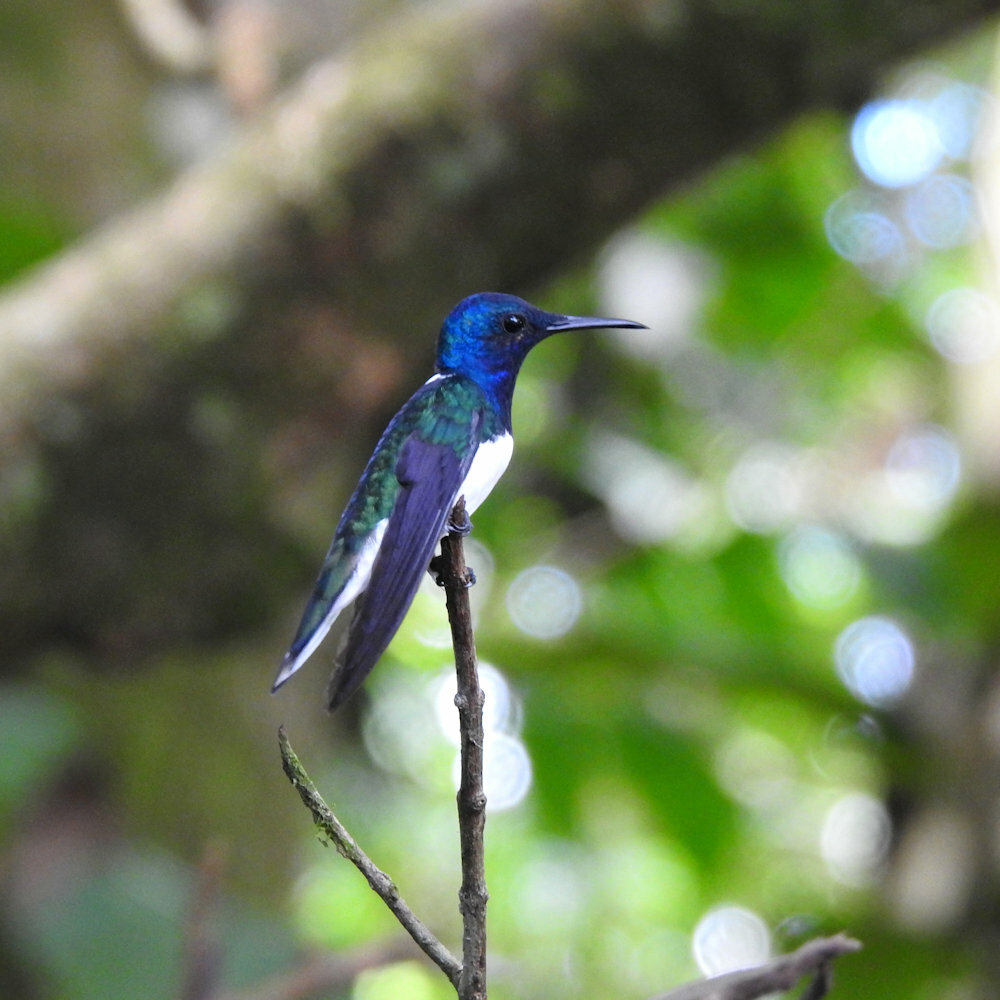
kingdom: Animalia
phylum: Chordata
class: Aves
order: Apodiformes
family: Trochilidae
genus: Florisuga
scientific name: Florisuga mellivora
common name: White-necked jacobin
